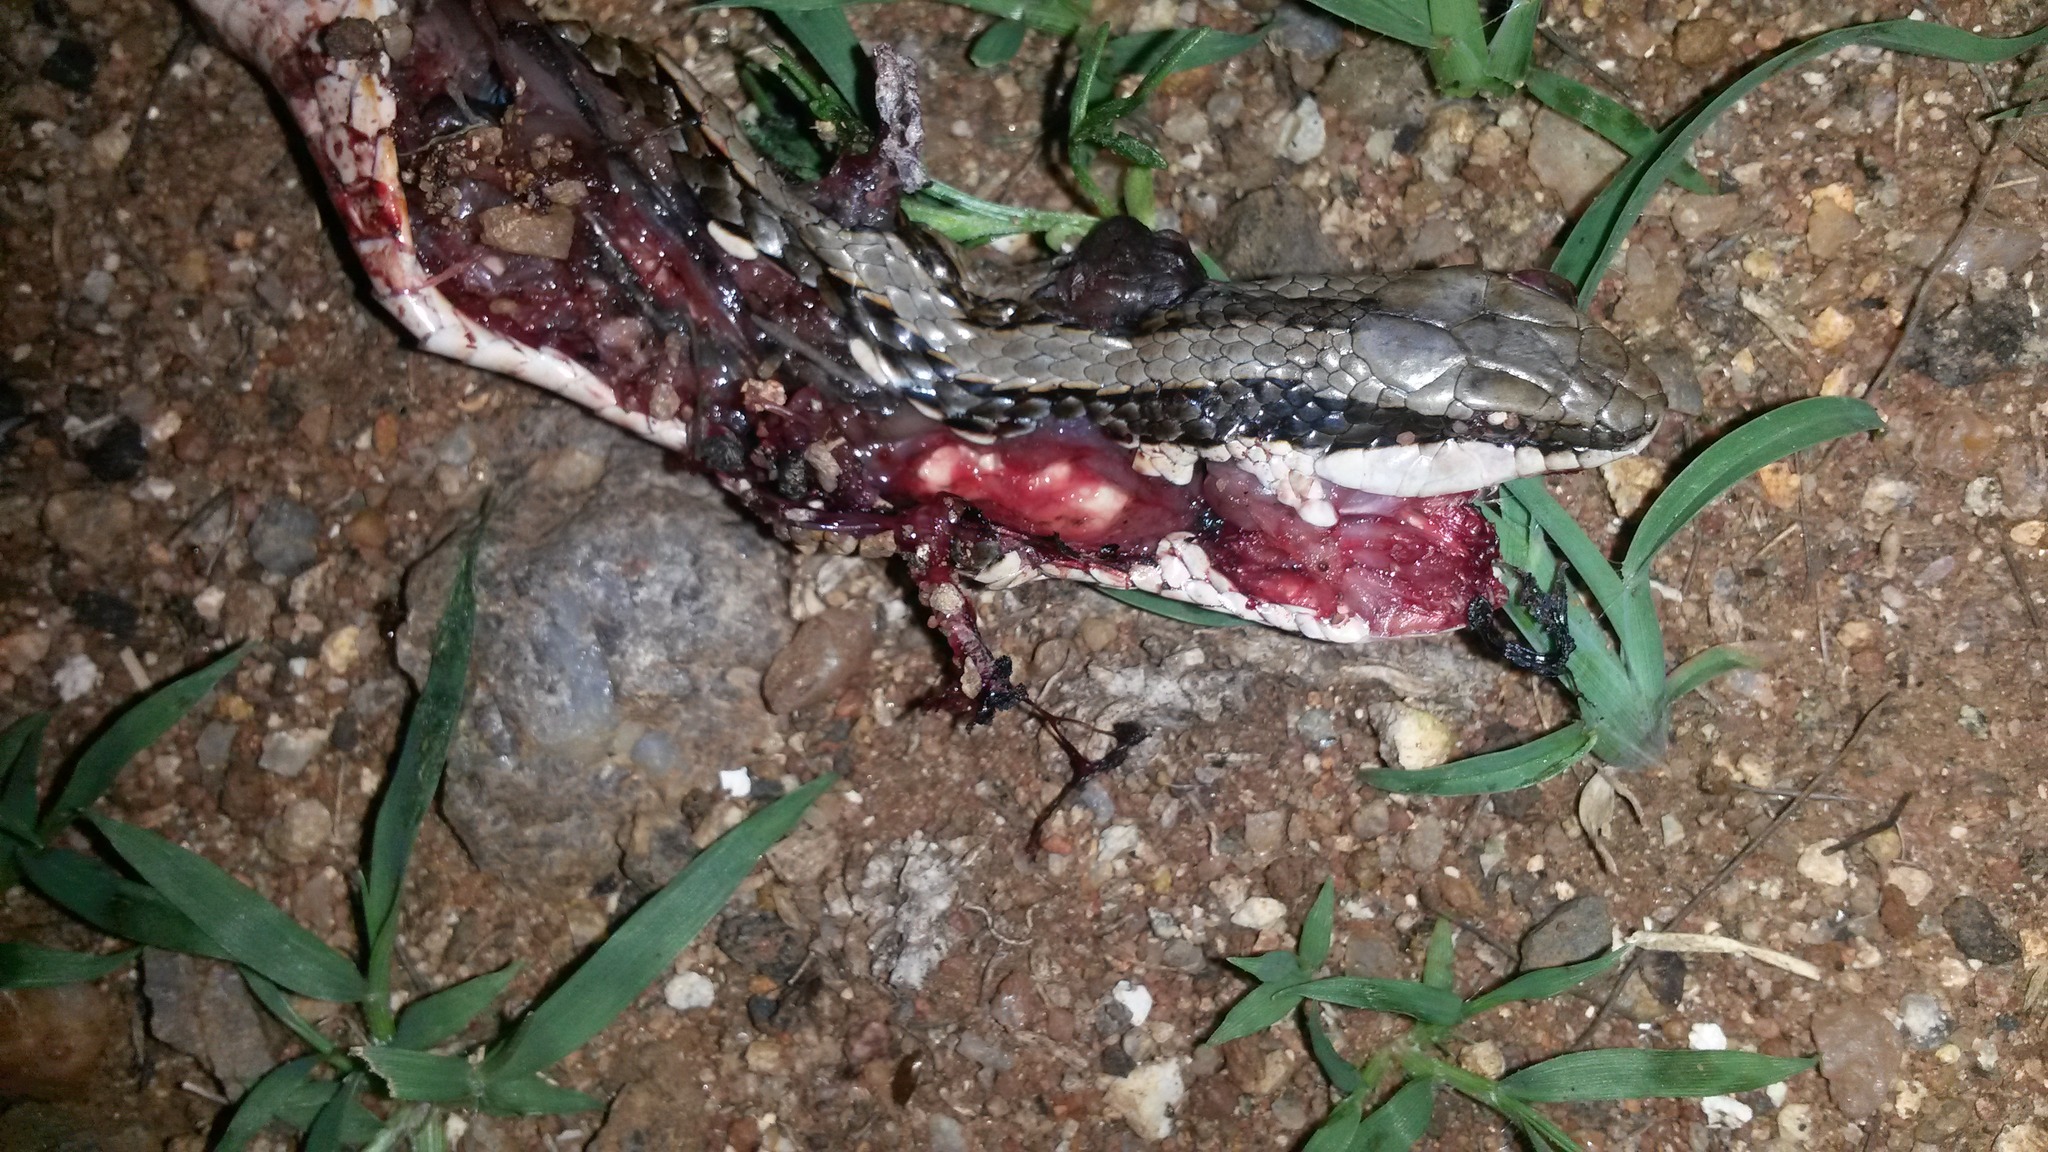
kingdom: Animalia
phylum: Chordata
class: Squamata
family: Psammophiidae
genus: Psammophylax
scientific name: Psammophylax tritaeniatus
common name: Striped skaapsteker
